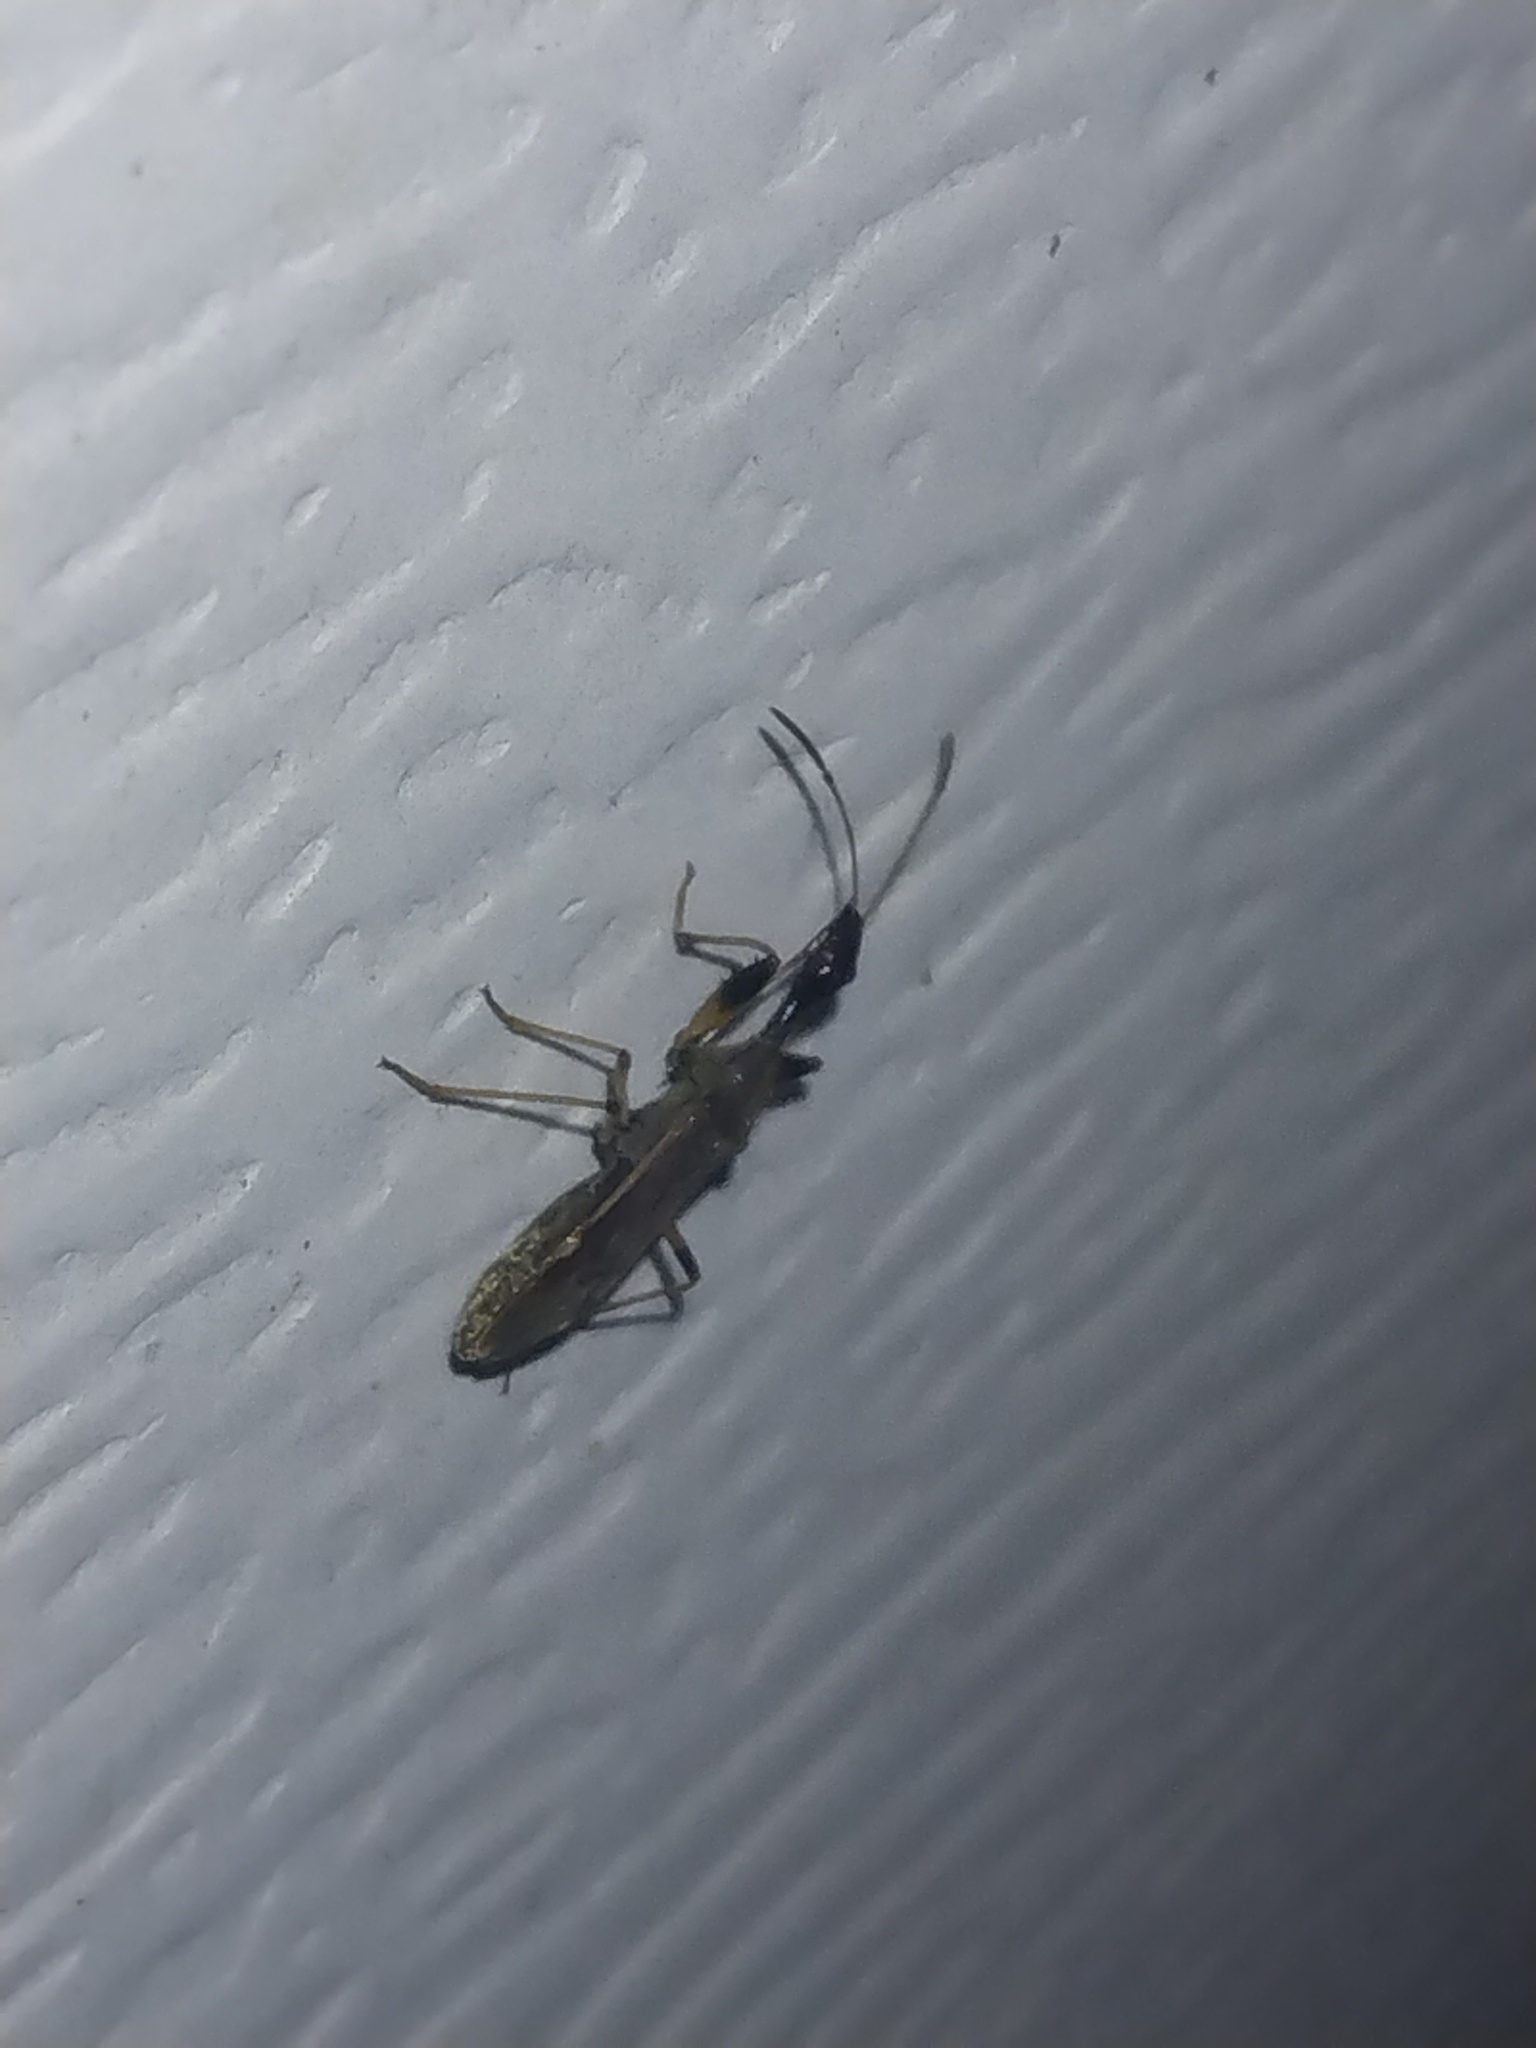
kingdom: Animalia
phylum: Arthropoda
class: Insecta
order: Hemiptera
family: Rhyparochromidae
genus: Myodocha
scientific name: Myodocha serripes
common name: Long-necked seed bug
